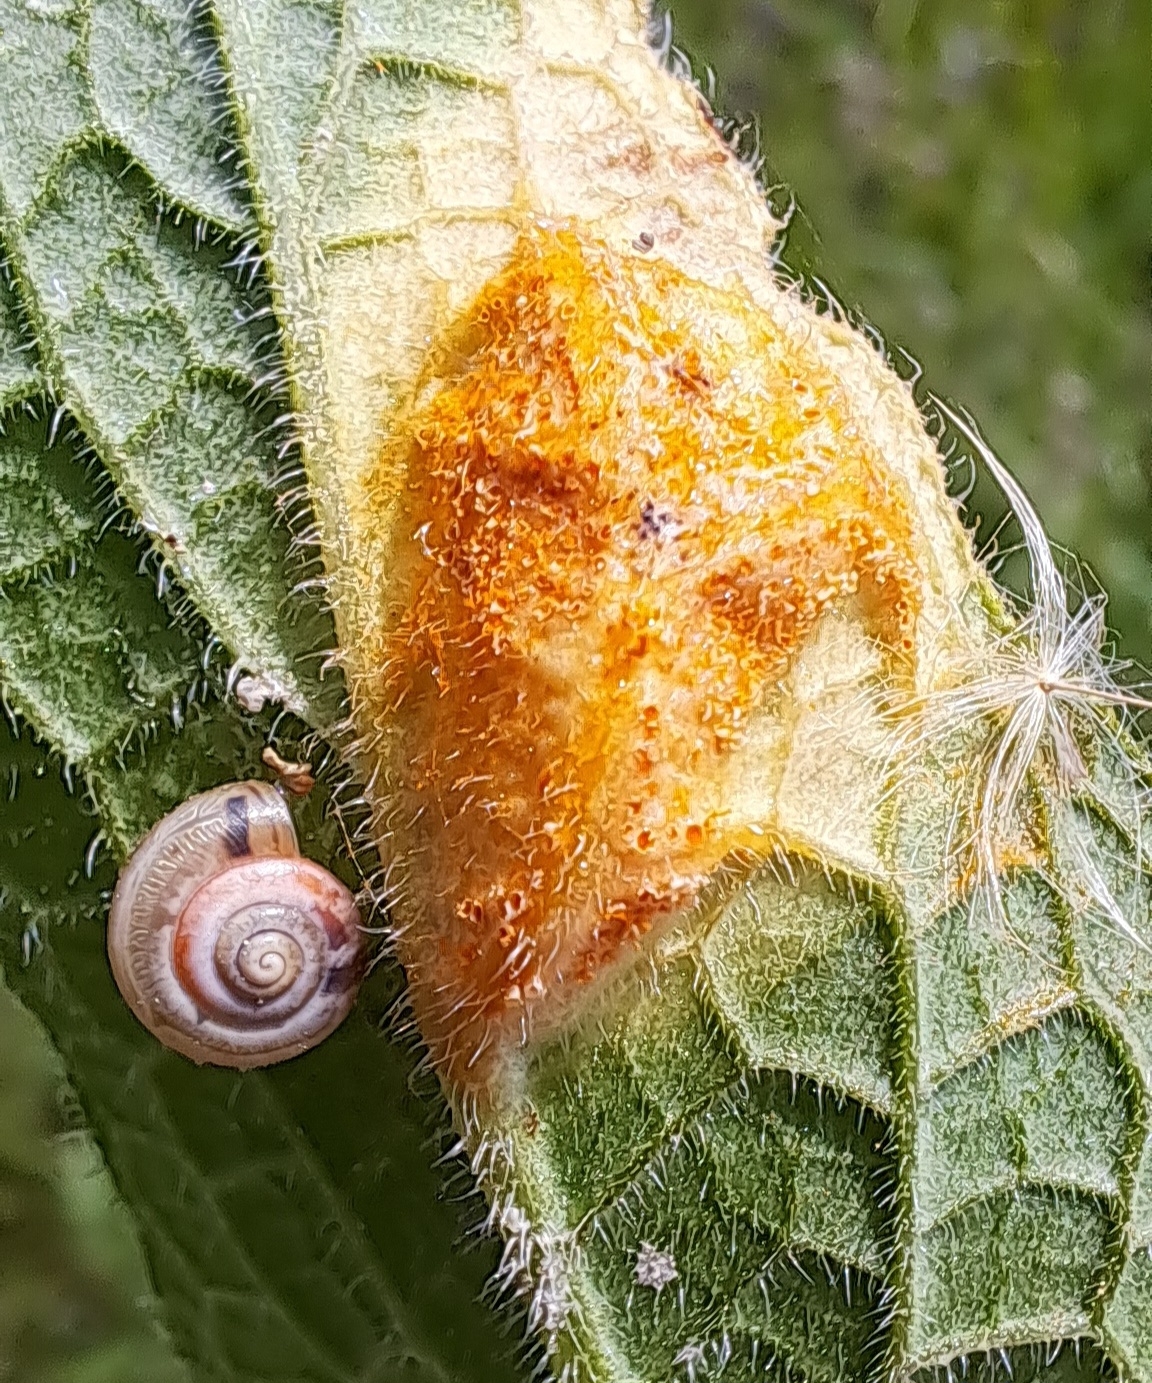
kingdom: Fungi
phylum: Basidiomycota
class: Pucciniomycetes
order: Pucciniales
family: Pucciniaceae
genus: Puccinia
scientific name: Puccinia bromina
